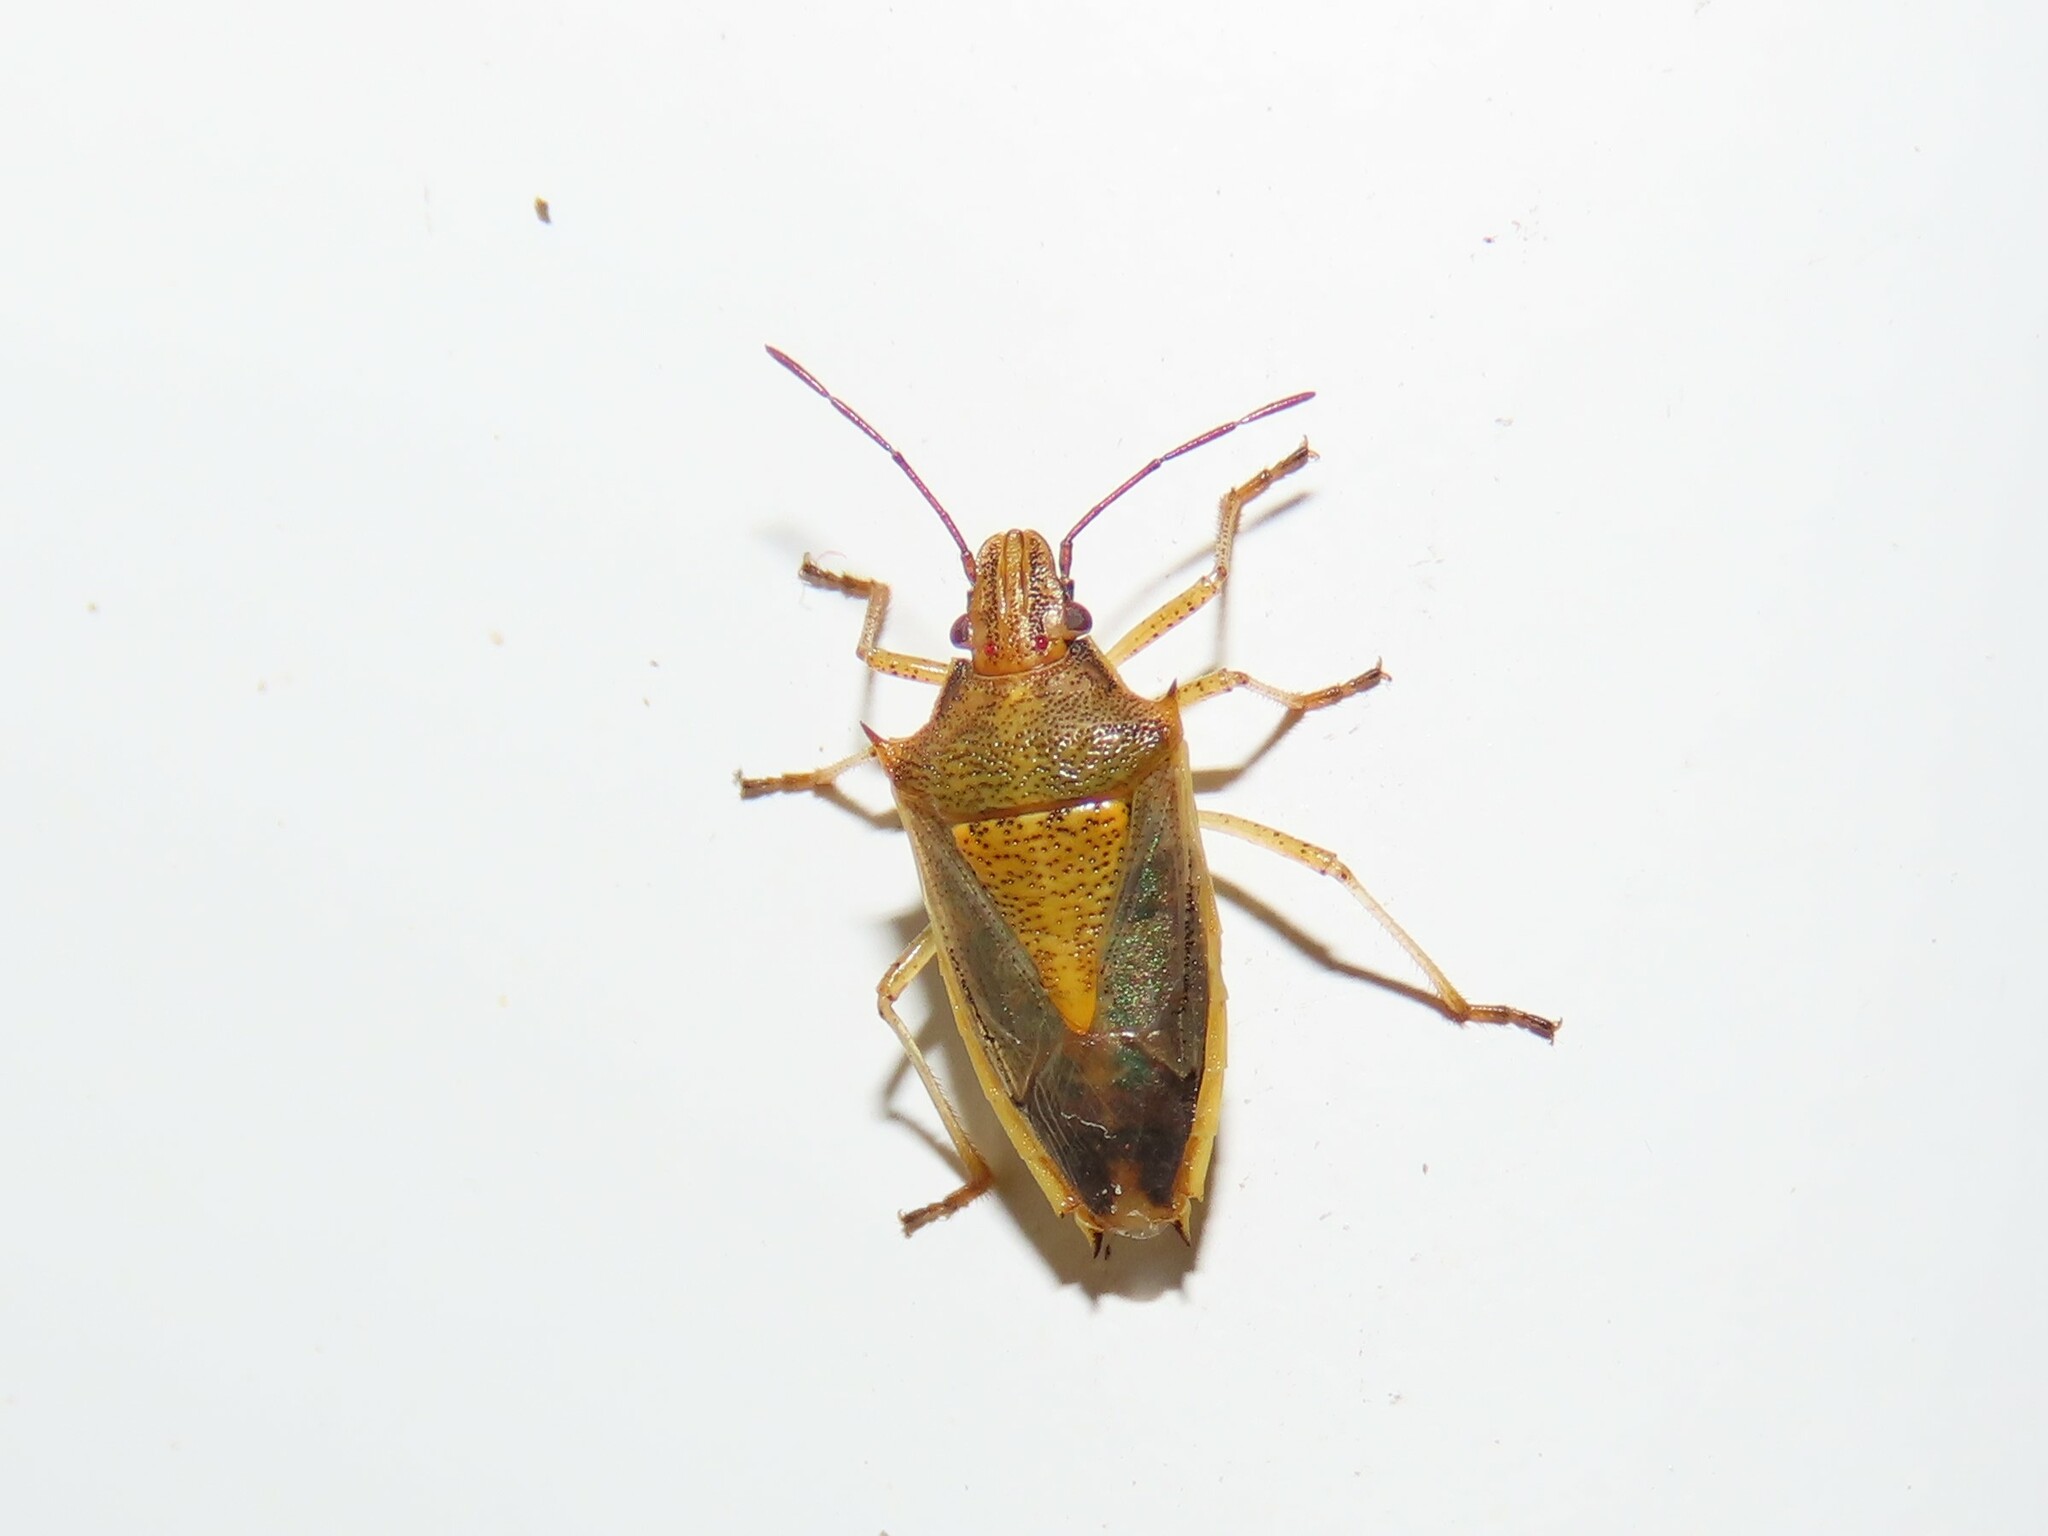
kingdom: Animalia
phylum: Arthropoda
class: Insecta
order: Hemiptera
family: Pentatomidae
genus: Oebalus
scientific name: Oebalus pugnax
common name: Rice stink bug
